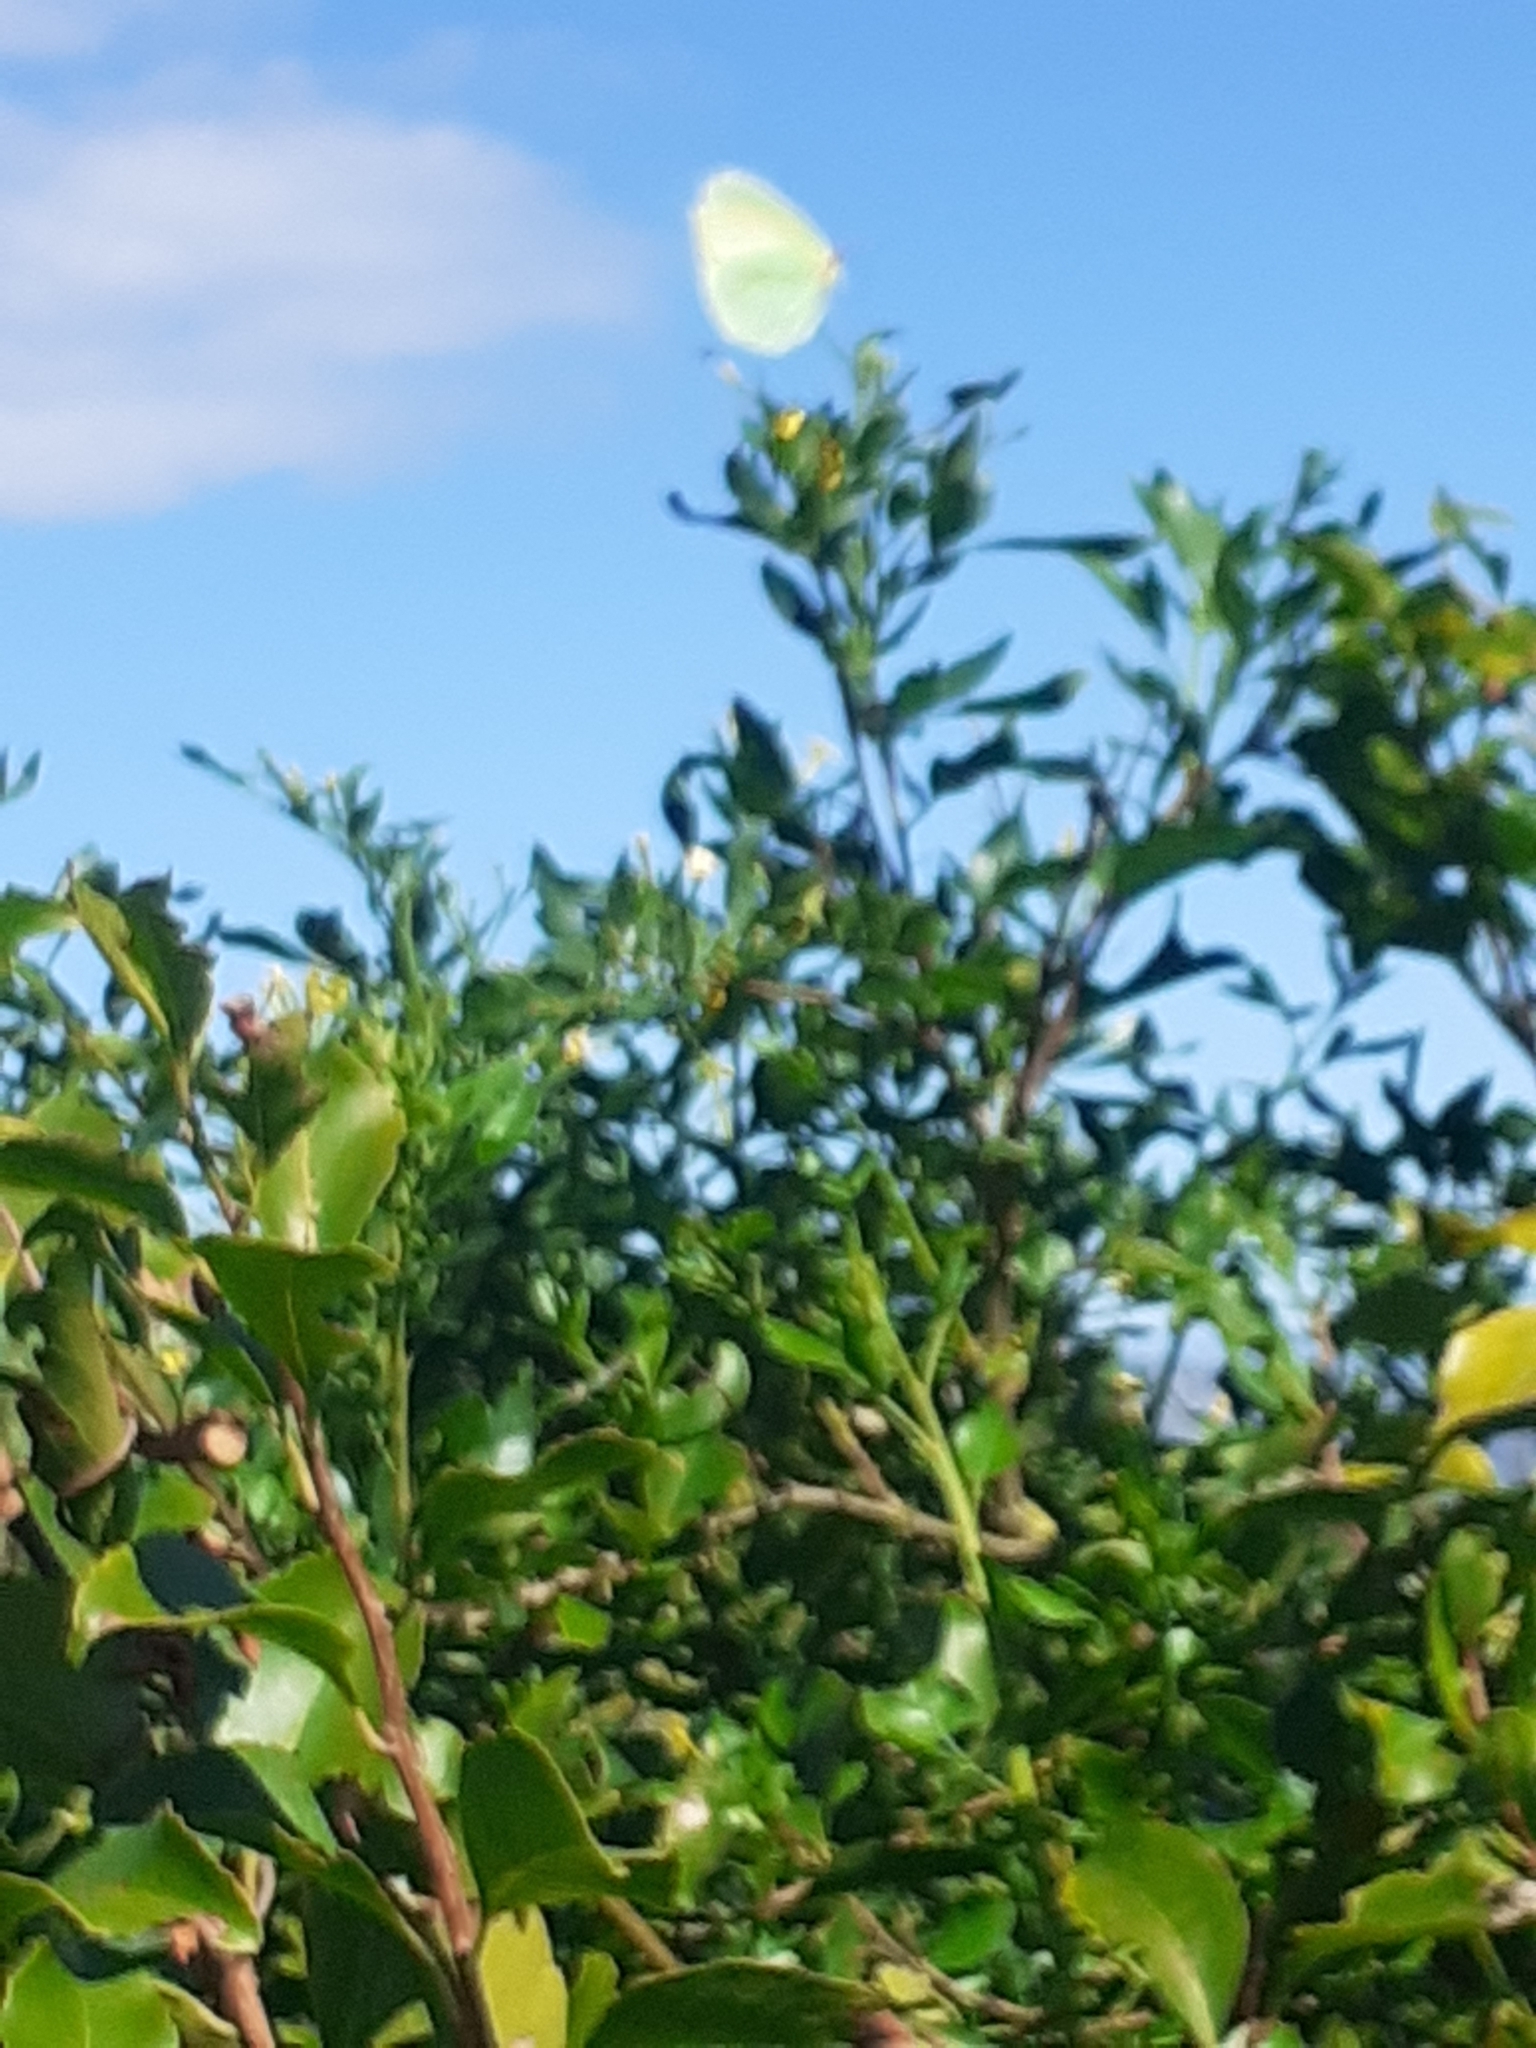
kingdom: Animalia
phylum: Arthropoda
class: Insecta
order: Lepidoptera
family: Pieridae
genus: Gonepteryx
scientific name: Gonepteryx cleobule
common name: Canary brimstone
